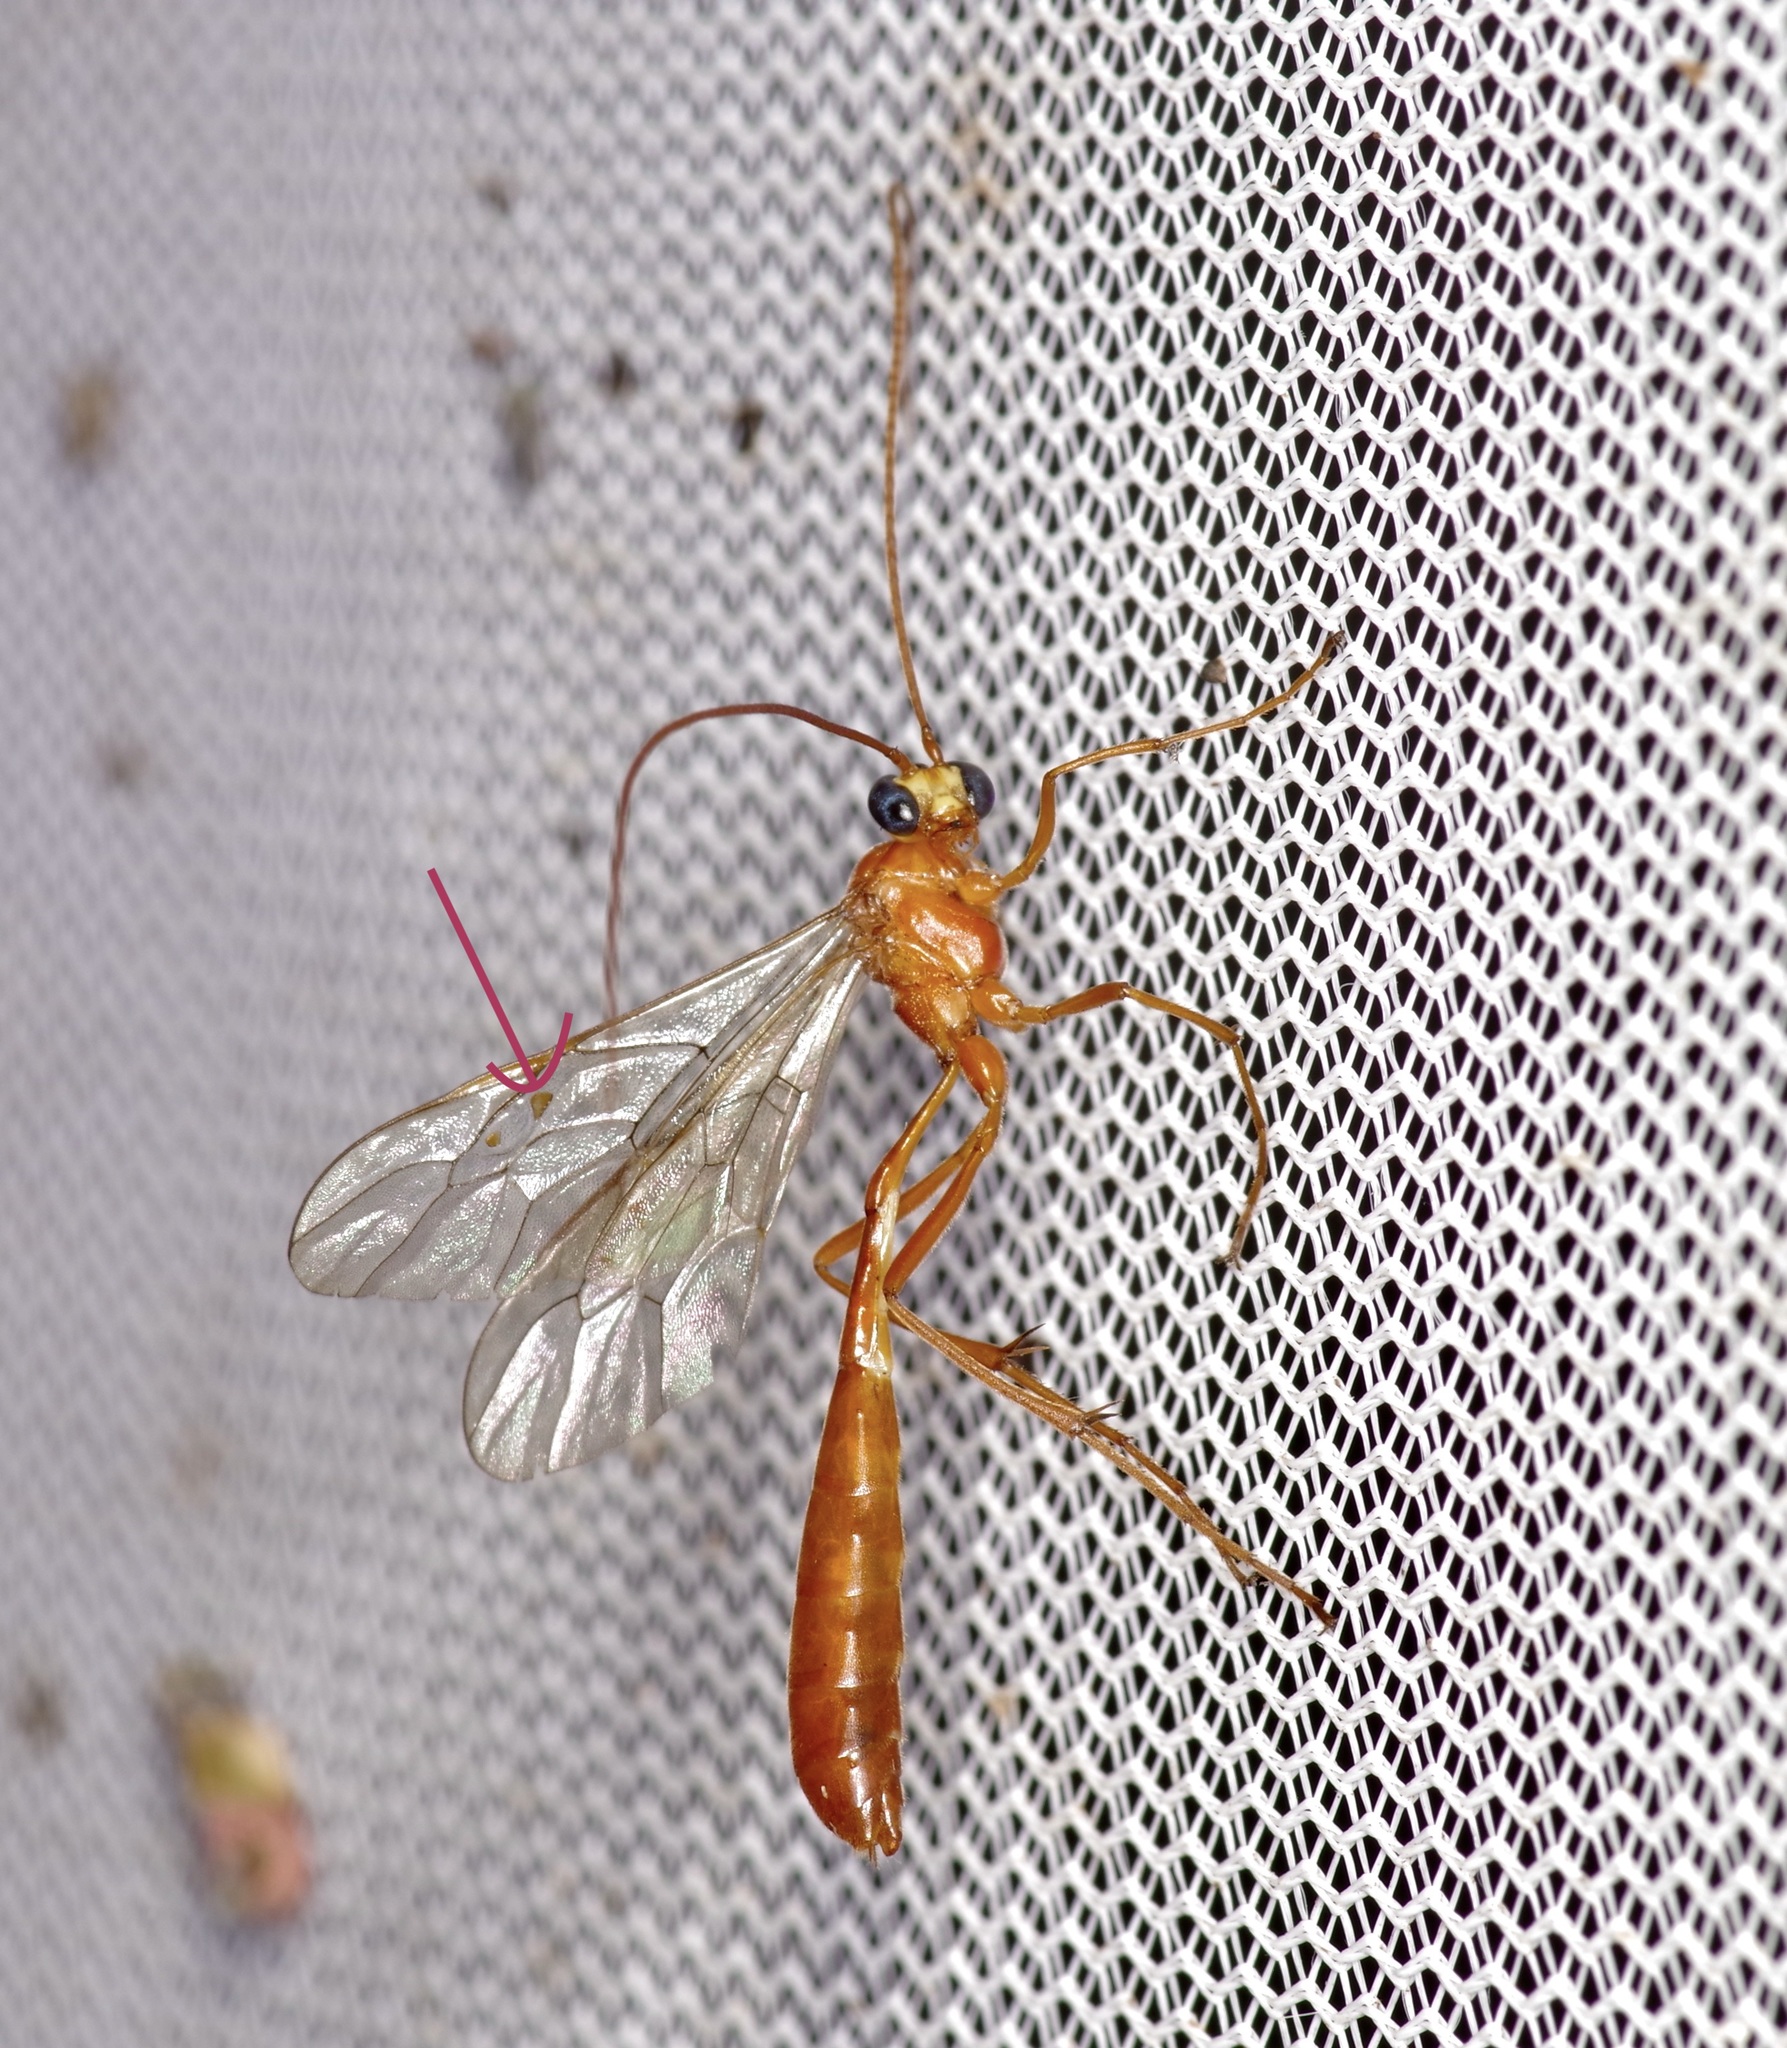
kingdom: Animalia
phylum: Arthropoda
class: Insecta
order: Hymenoptera
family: Ichneumonidae
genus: Enicospilus
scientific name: Enicospilus purgatus
